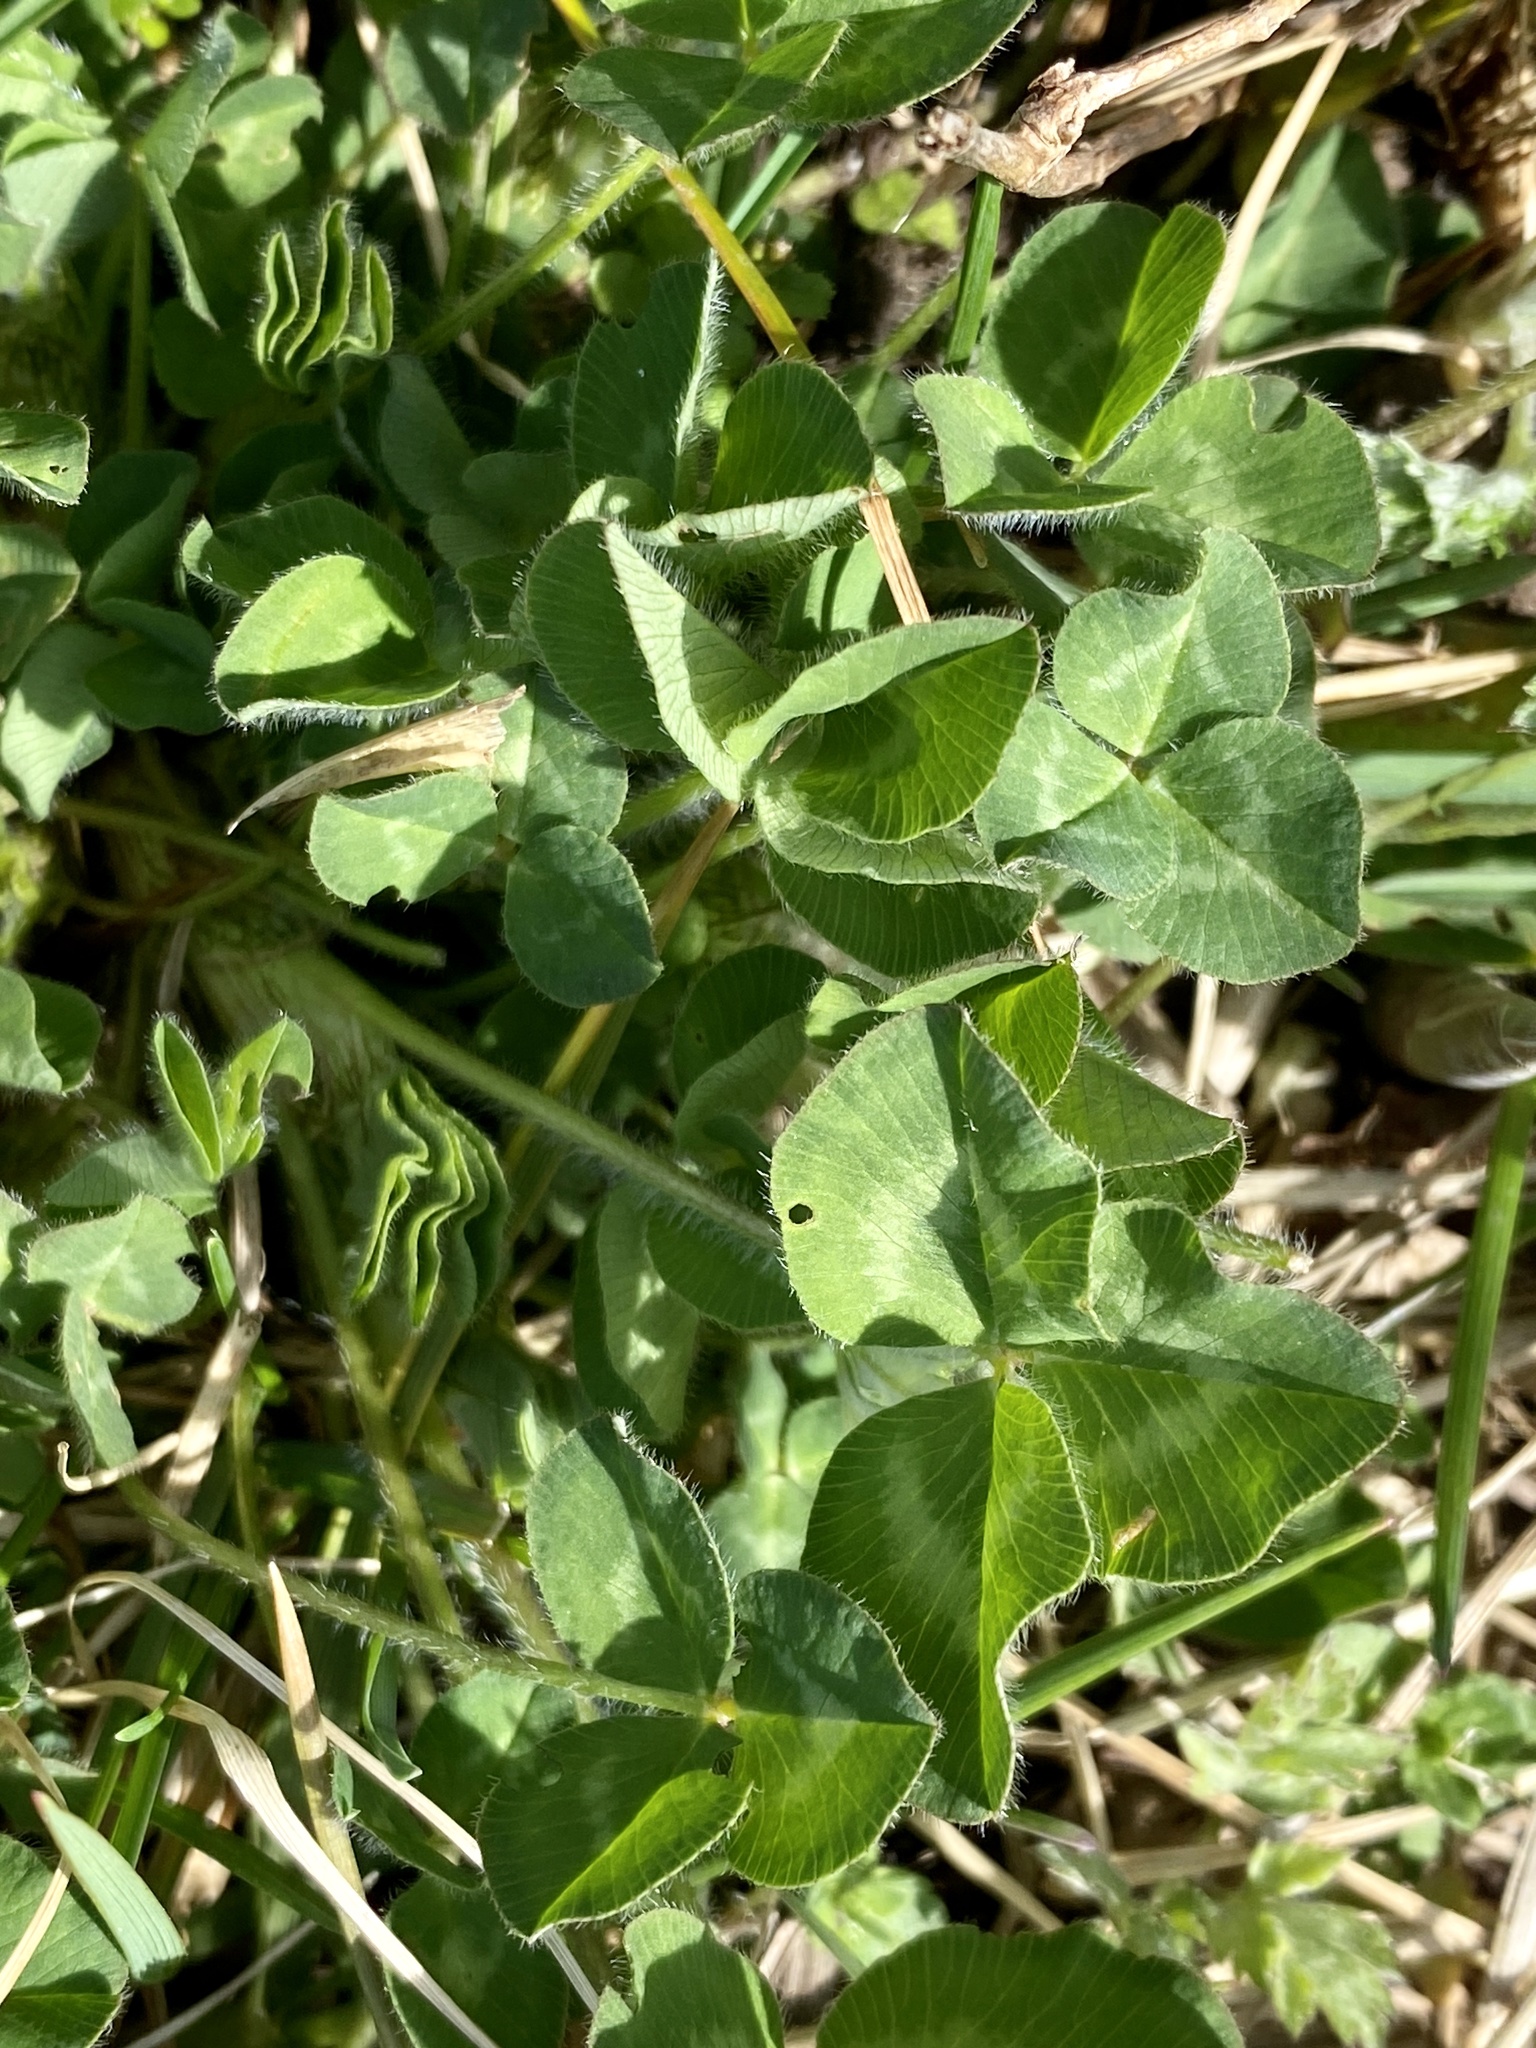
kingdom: Plantae
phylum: Tracheophyta
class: Magnoliopsida
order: Fabales
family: Fabaceae
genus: Trifolium
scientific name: Trifolium pratense
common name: Red clover
